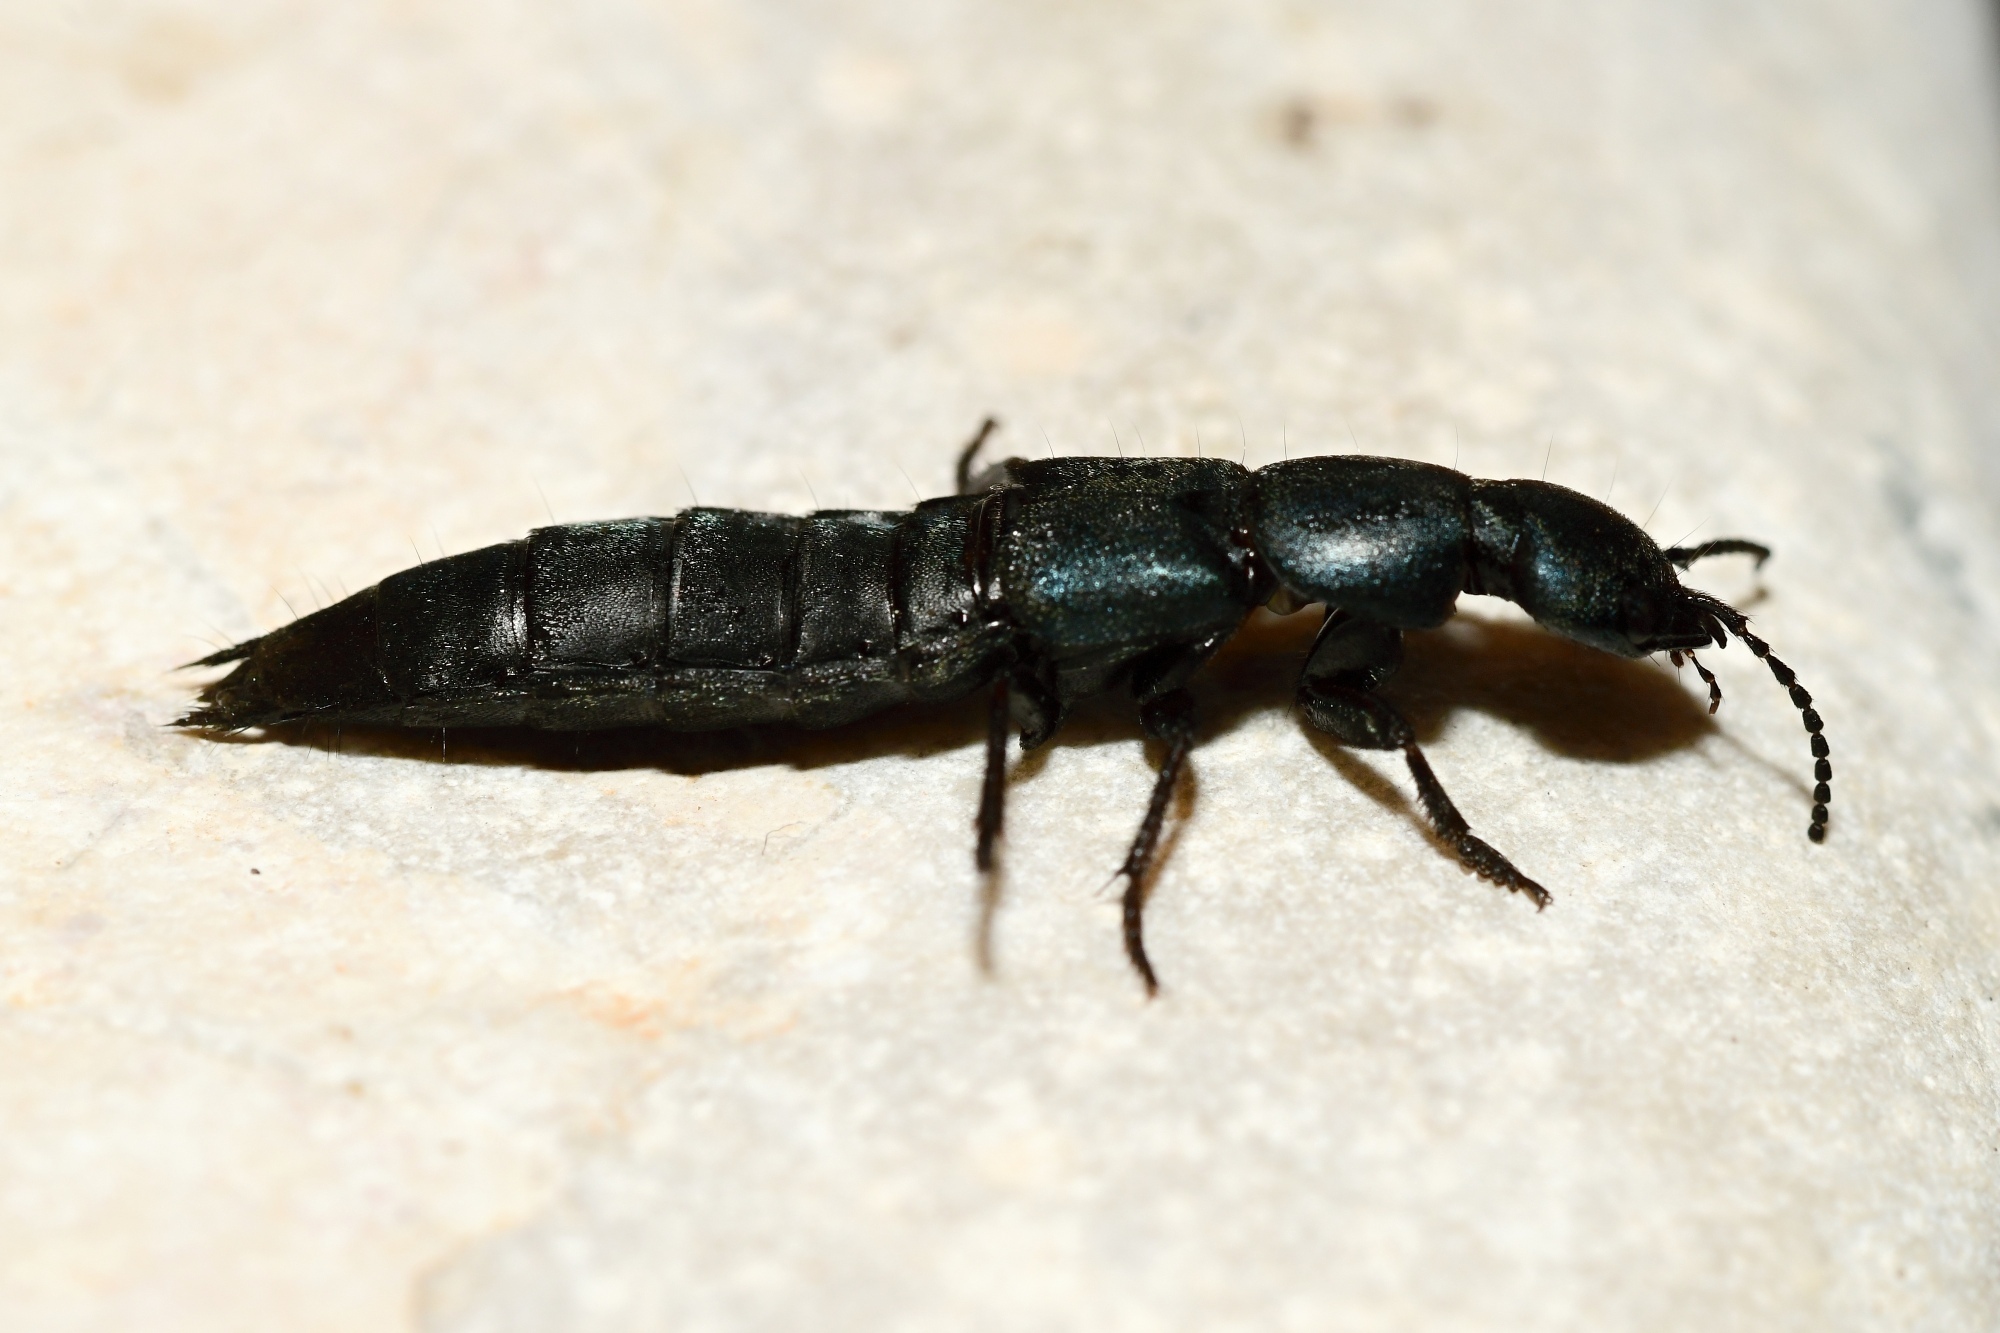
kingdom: Animalia
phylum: Arthropoda
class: Insecta
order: Coleoptera
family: Staphylinidae
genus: Ocypus
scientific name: Ocypus ophthalmicus
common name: Blue rove-beetle
